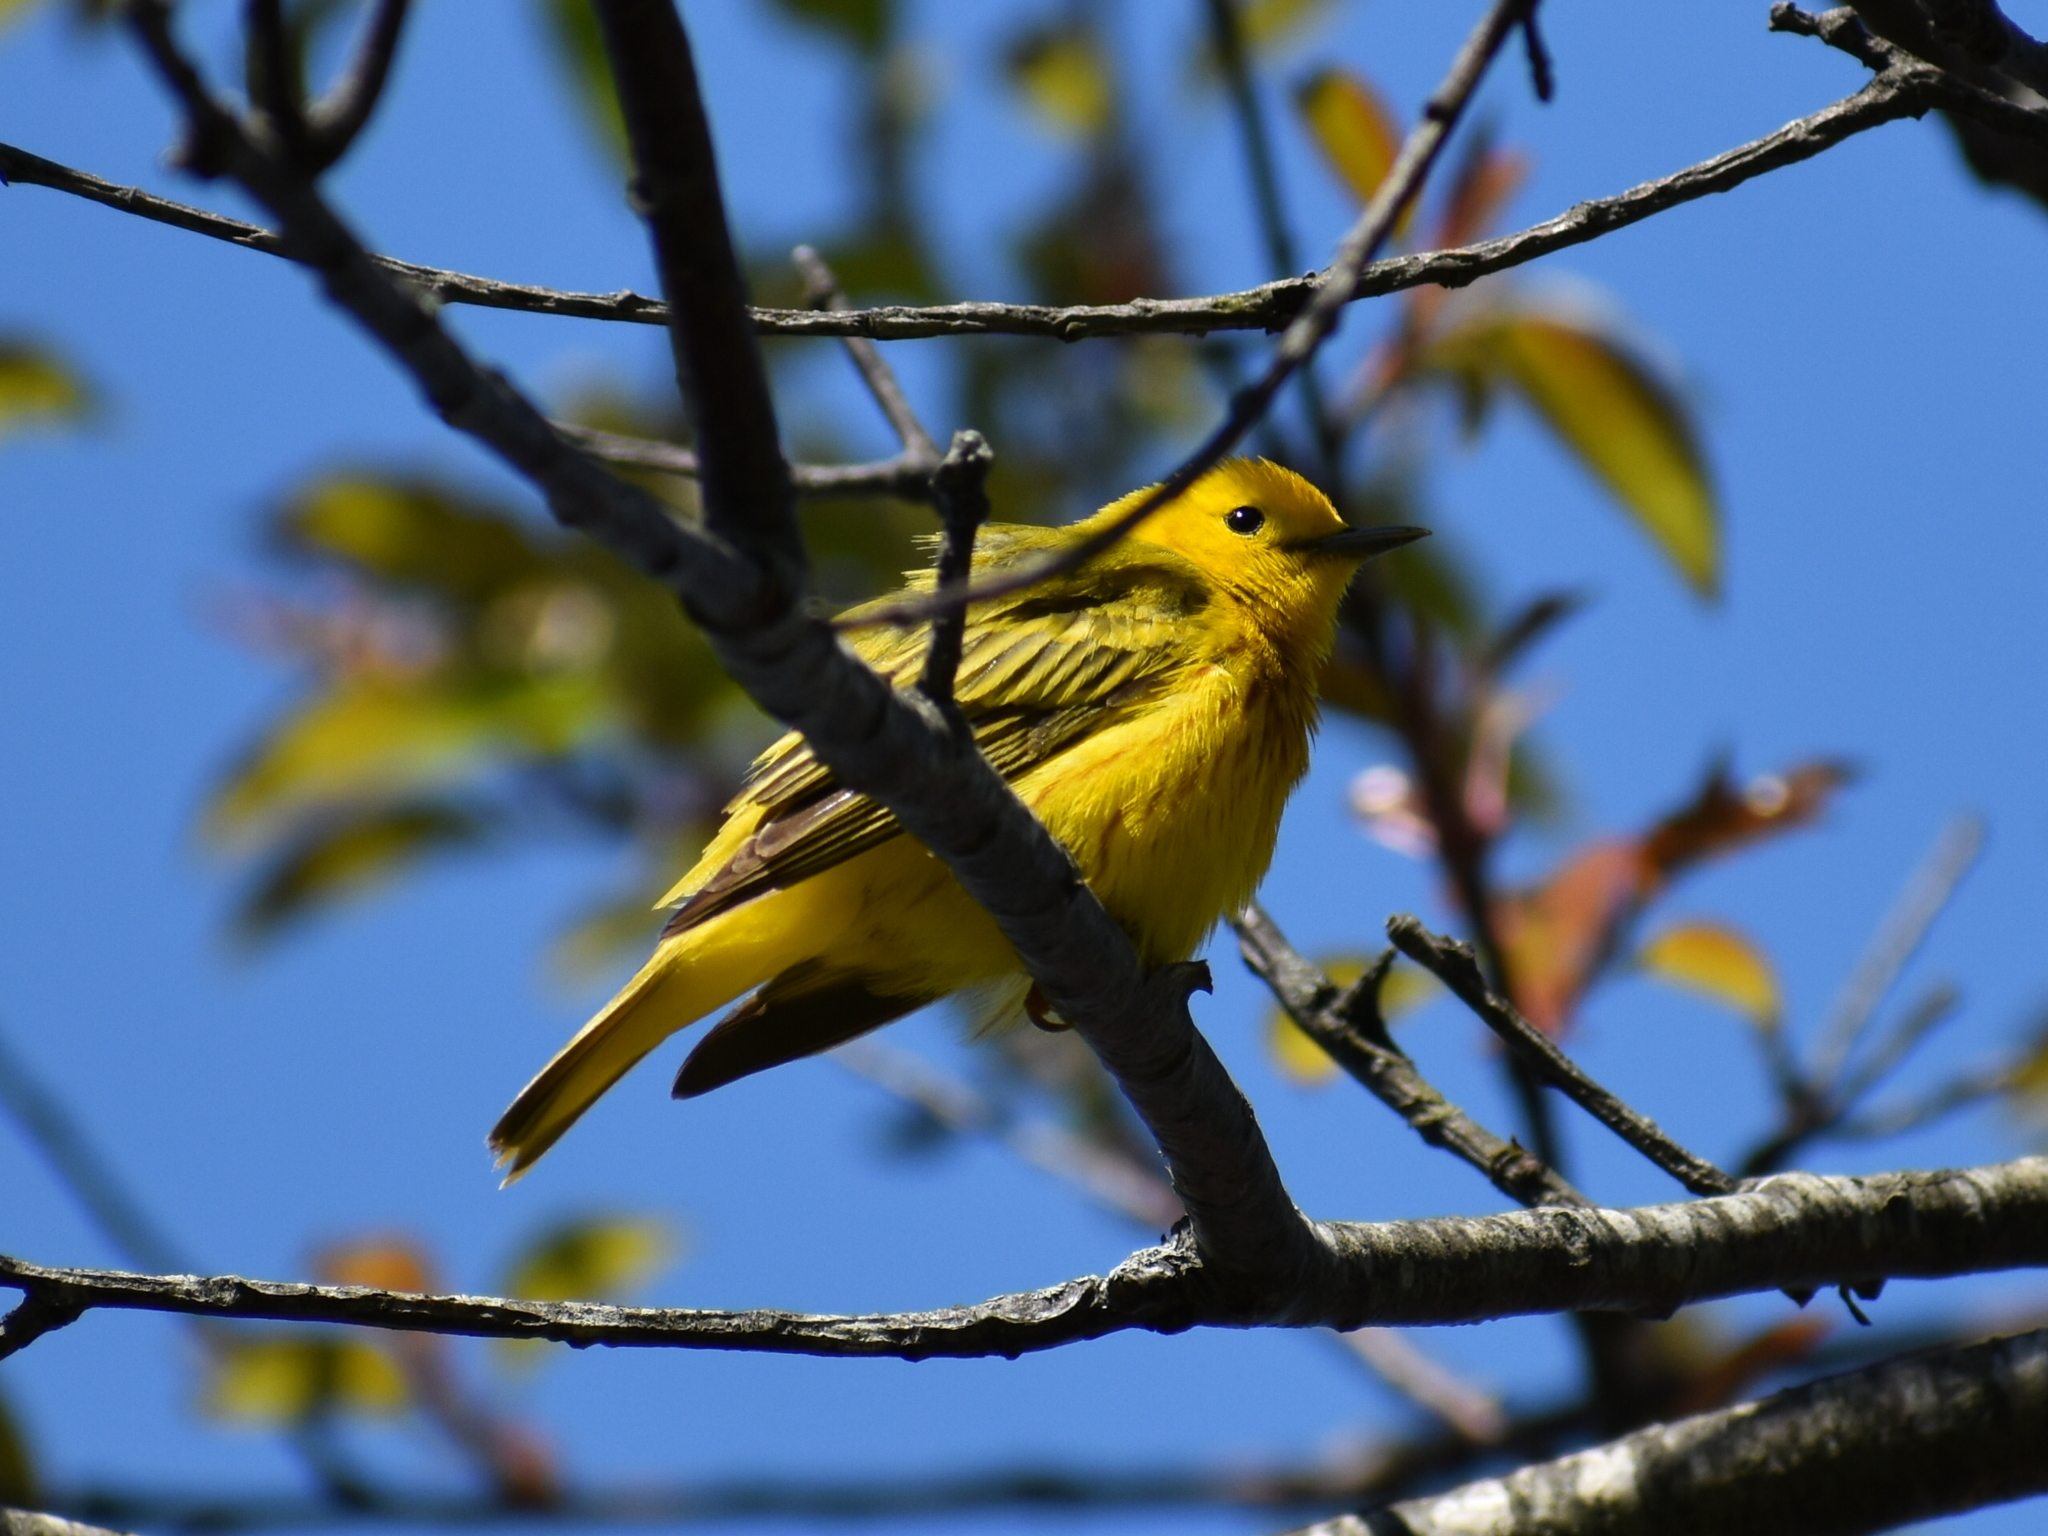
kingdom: Animalia
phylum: Chordata
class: Aves
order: Passeriformes
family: Parulidae
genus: Setophaga
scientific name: Setophaga petechia
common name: Yellow warbler
